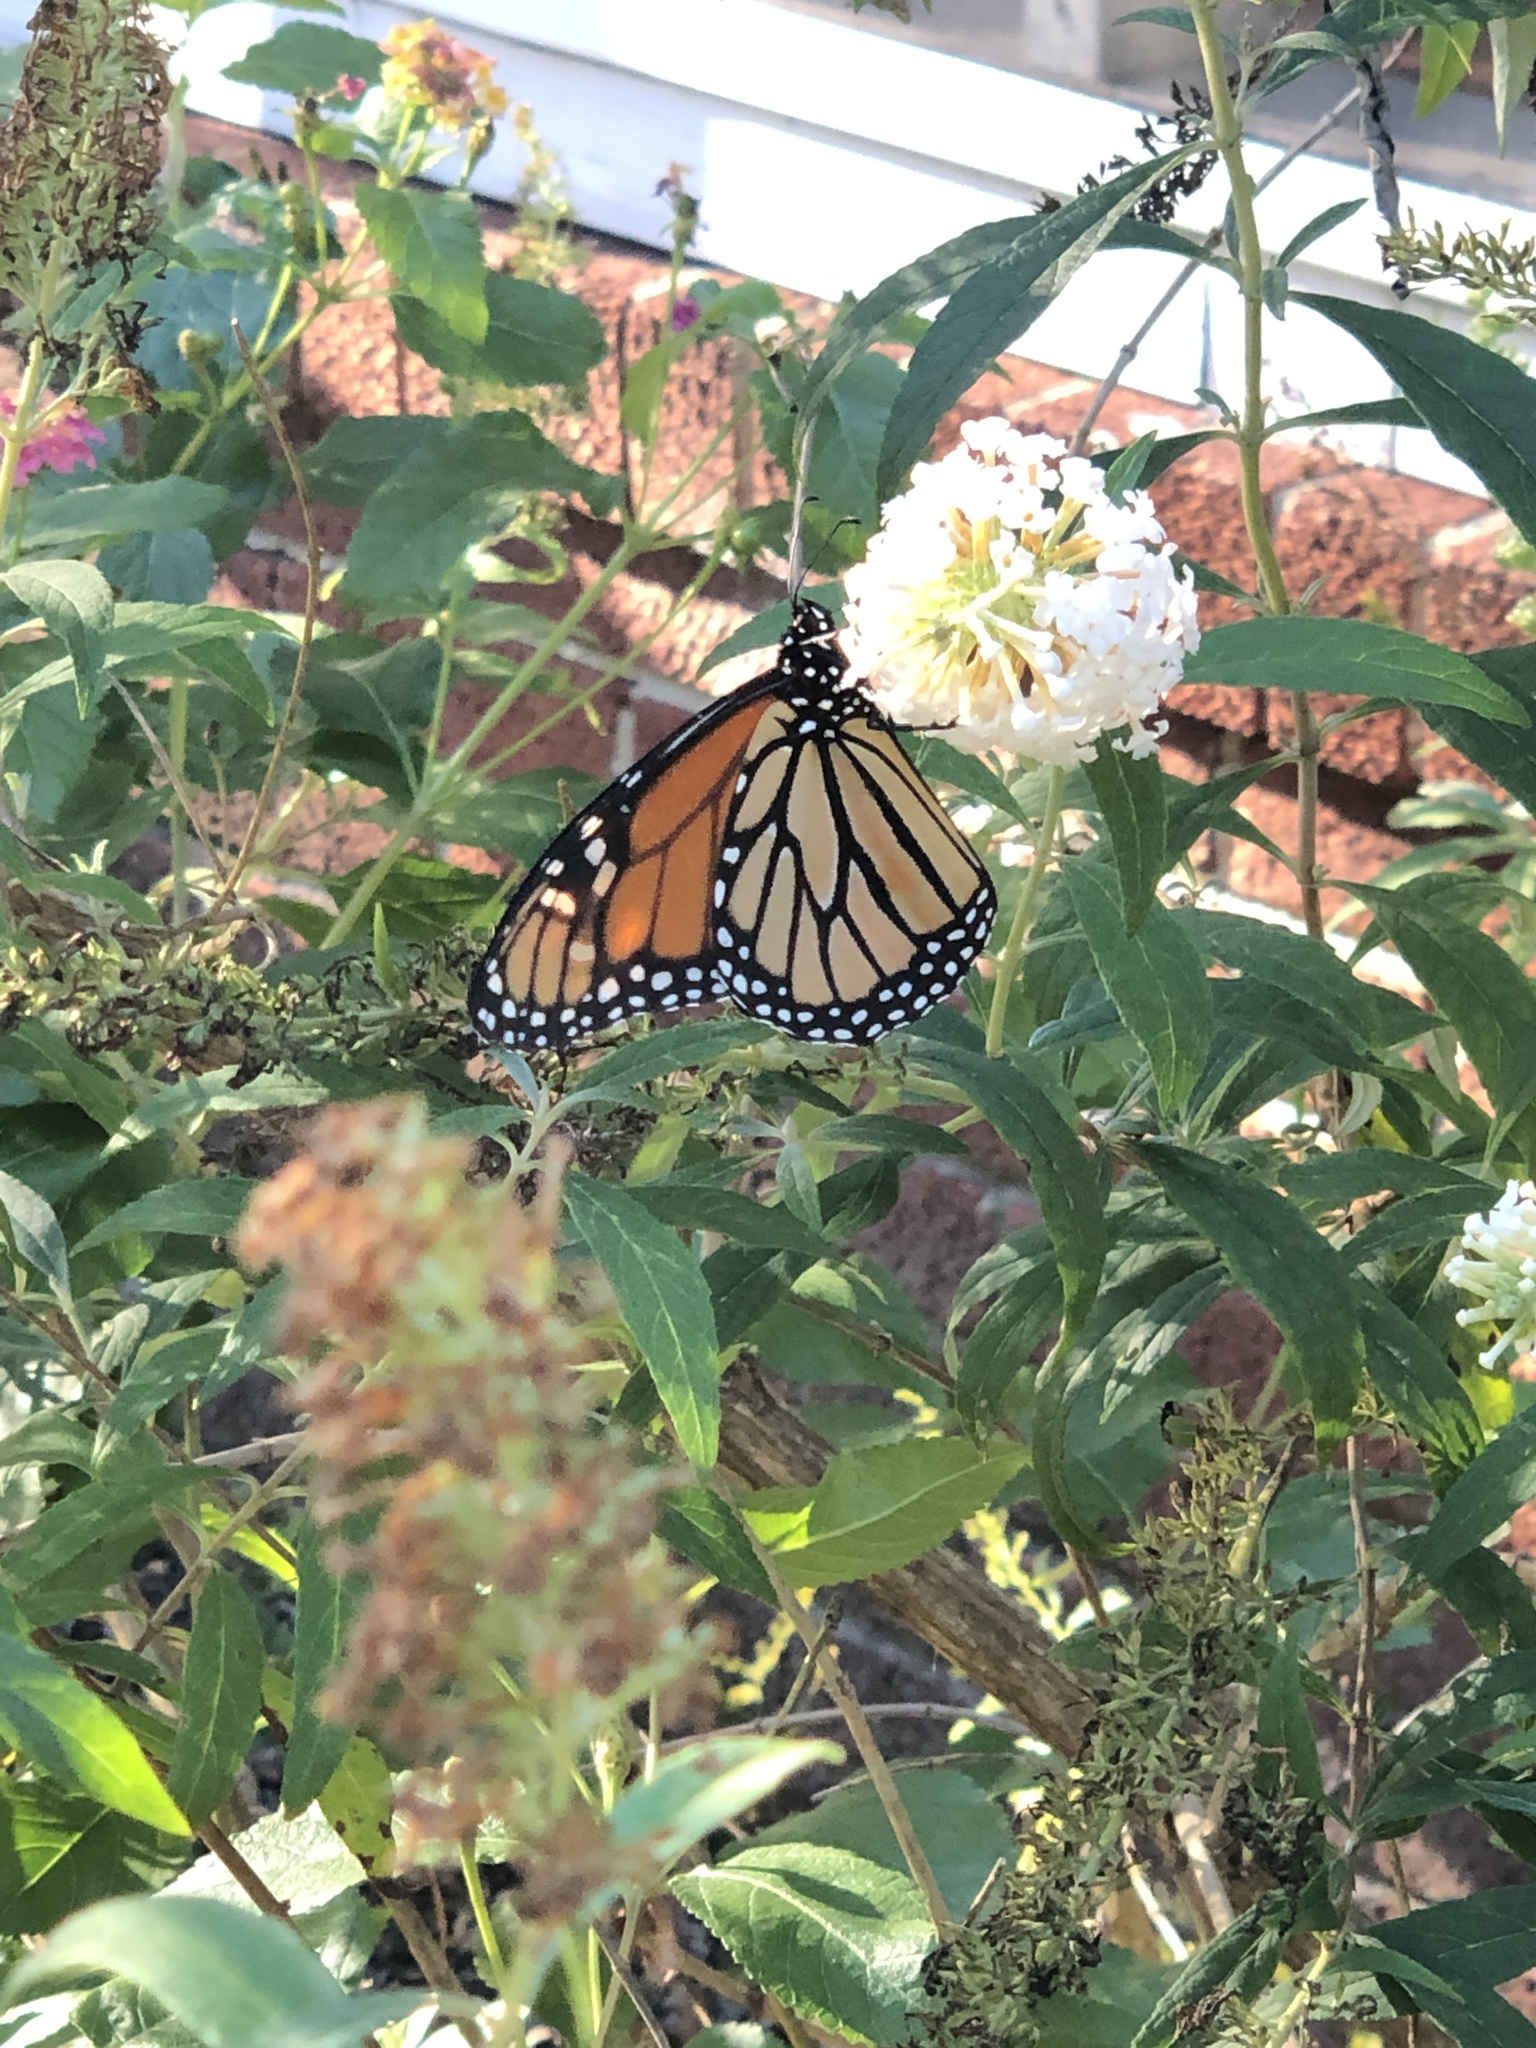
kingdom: Animalia
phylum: Arthropoda
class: Insecta
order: Lepidoptera
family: Nymphalidae
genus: Danaus
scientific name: Danaus plexippus
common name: Monarch
